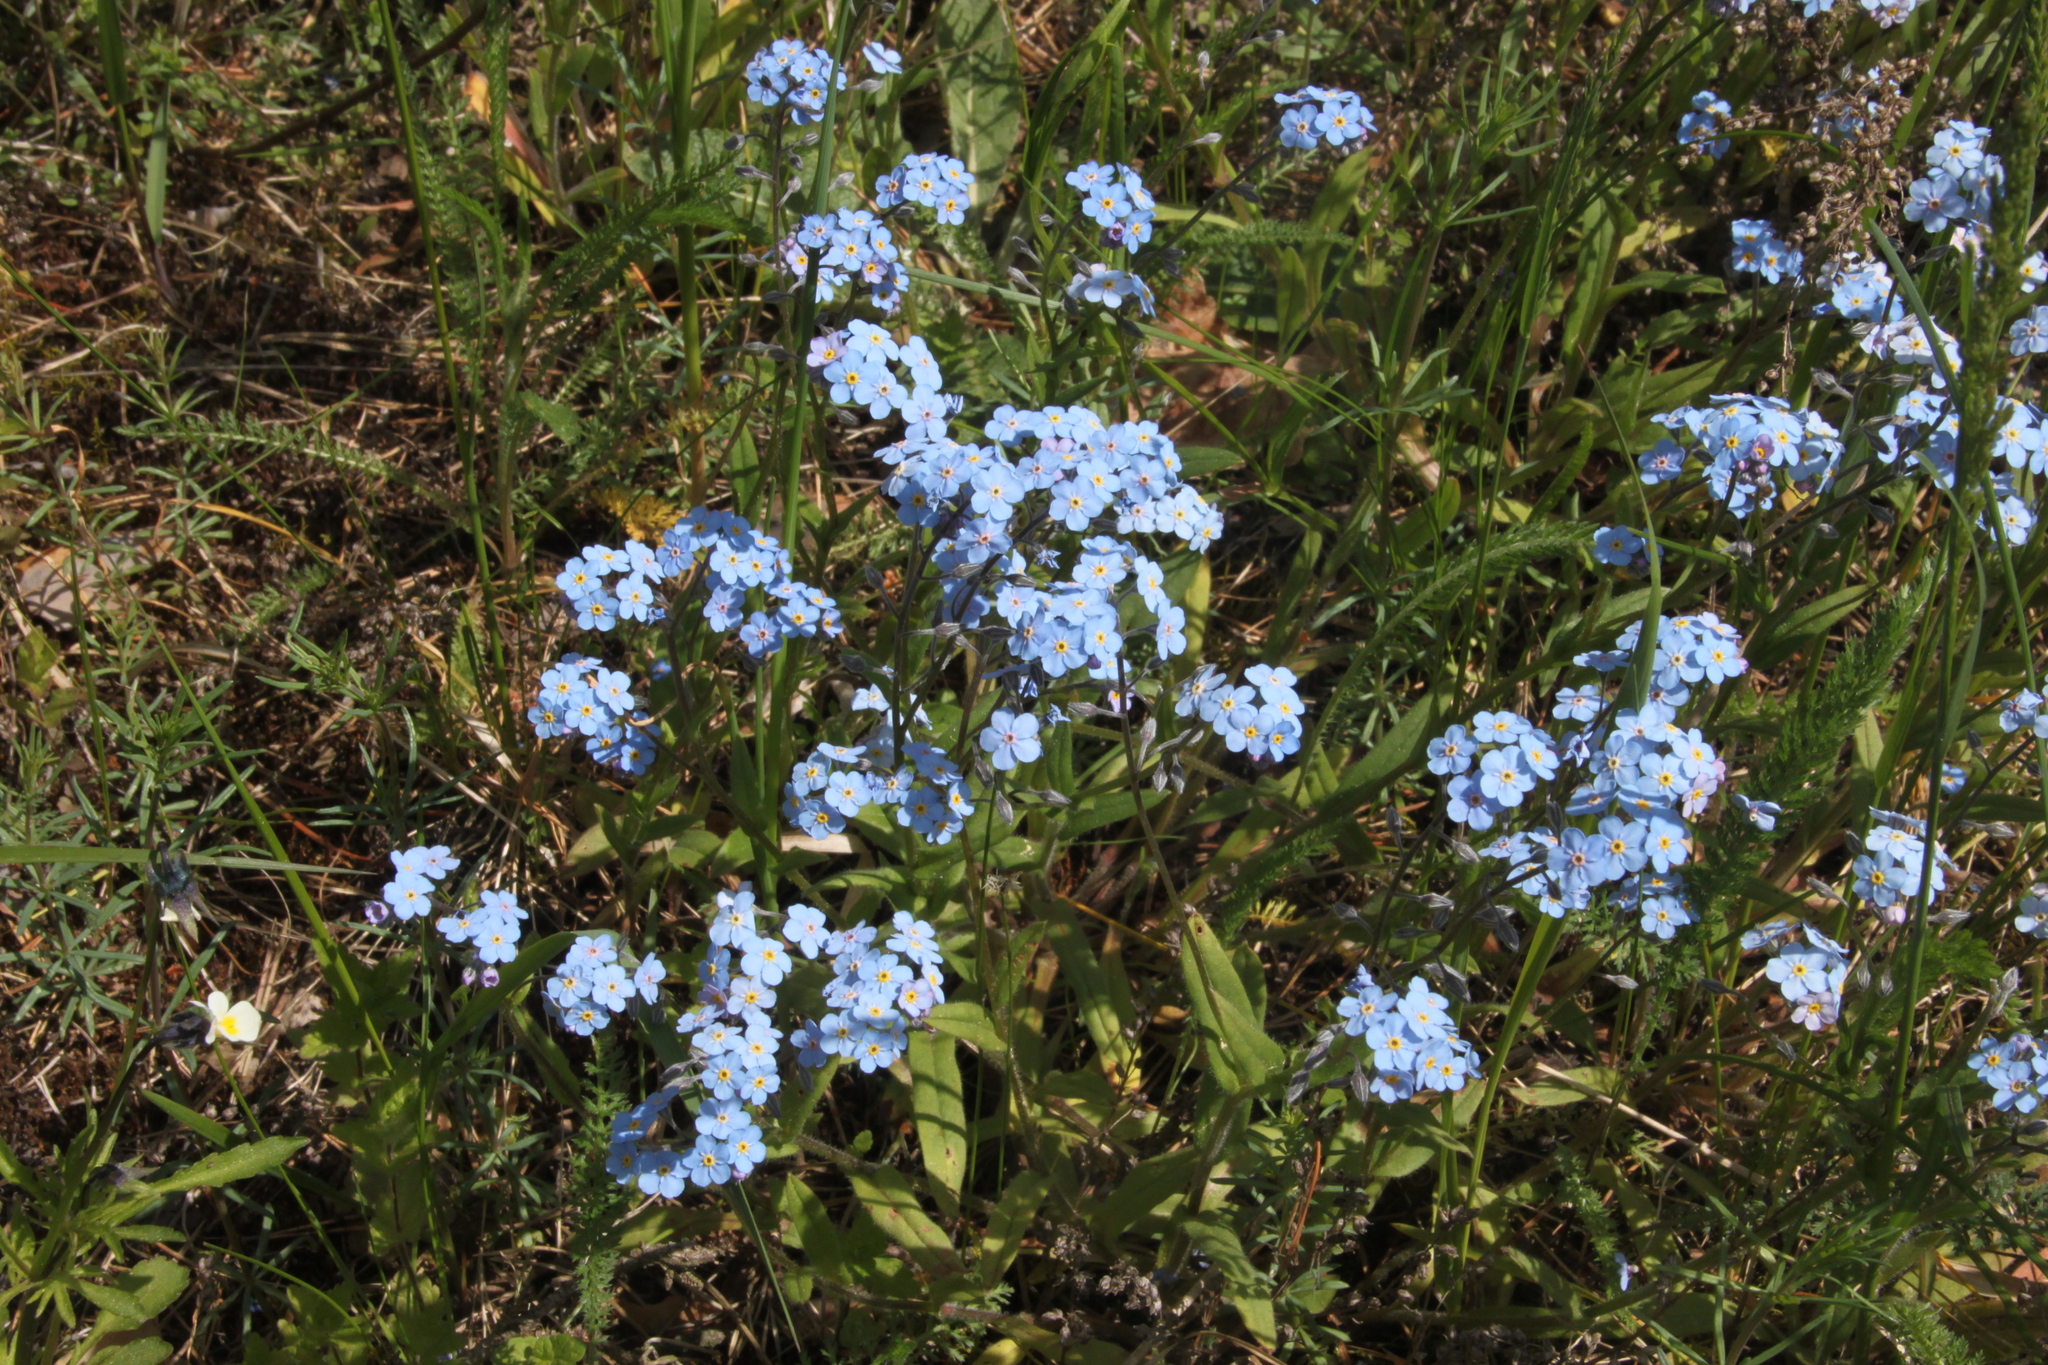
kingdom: Plantae
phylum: Tracheophyta
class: Magnoliopsida
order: Boraginales
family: Boraginaceae
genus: Myosotis
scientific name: Myosotis sylvatica
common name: Wood forget-me-not
